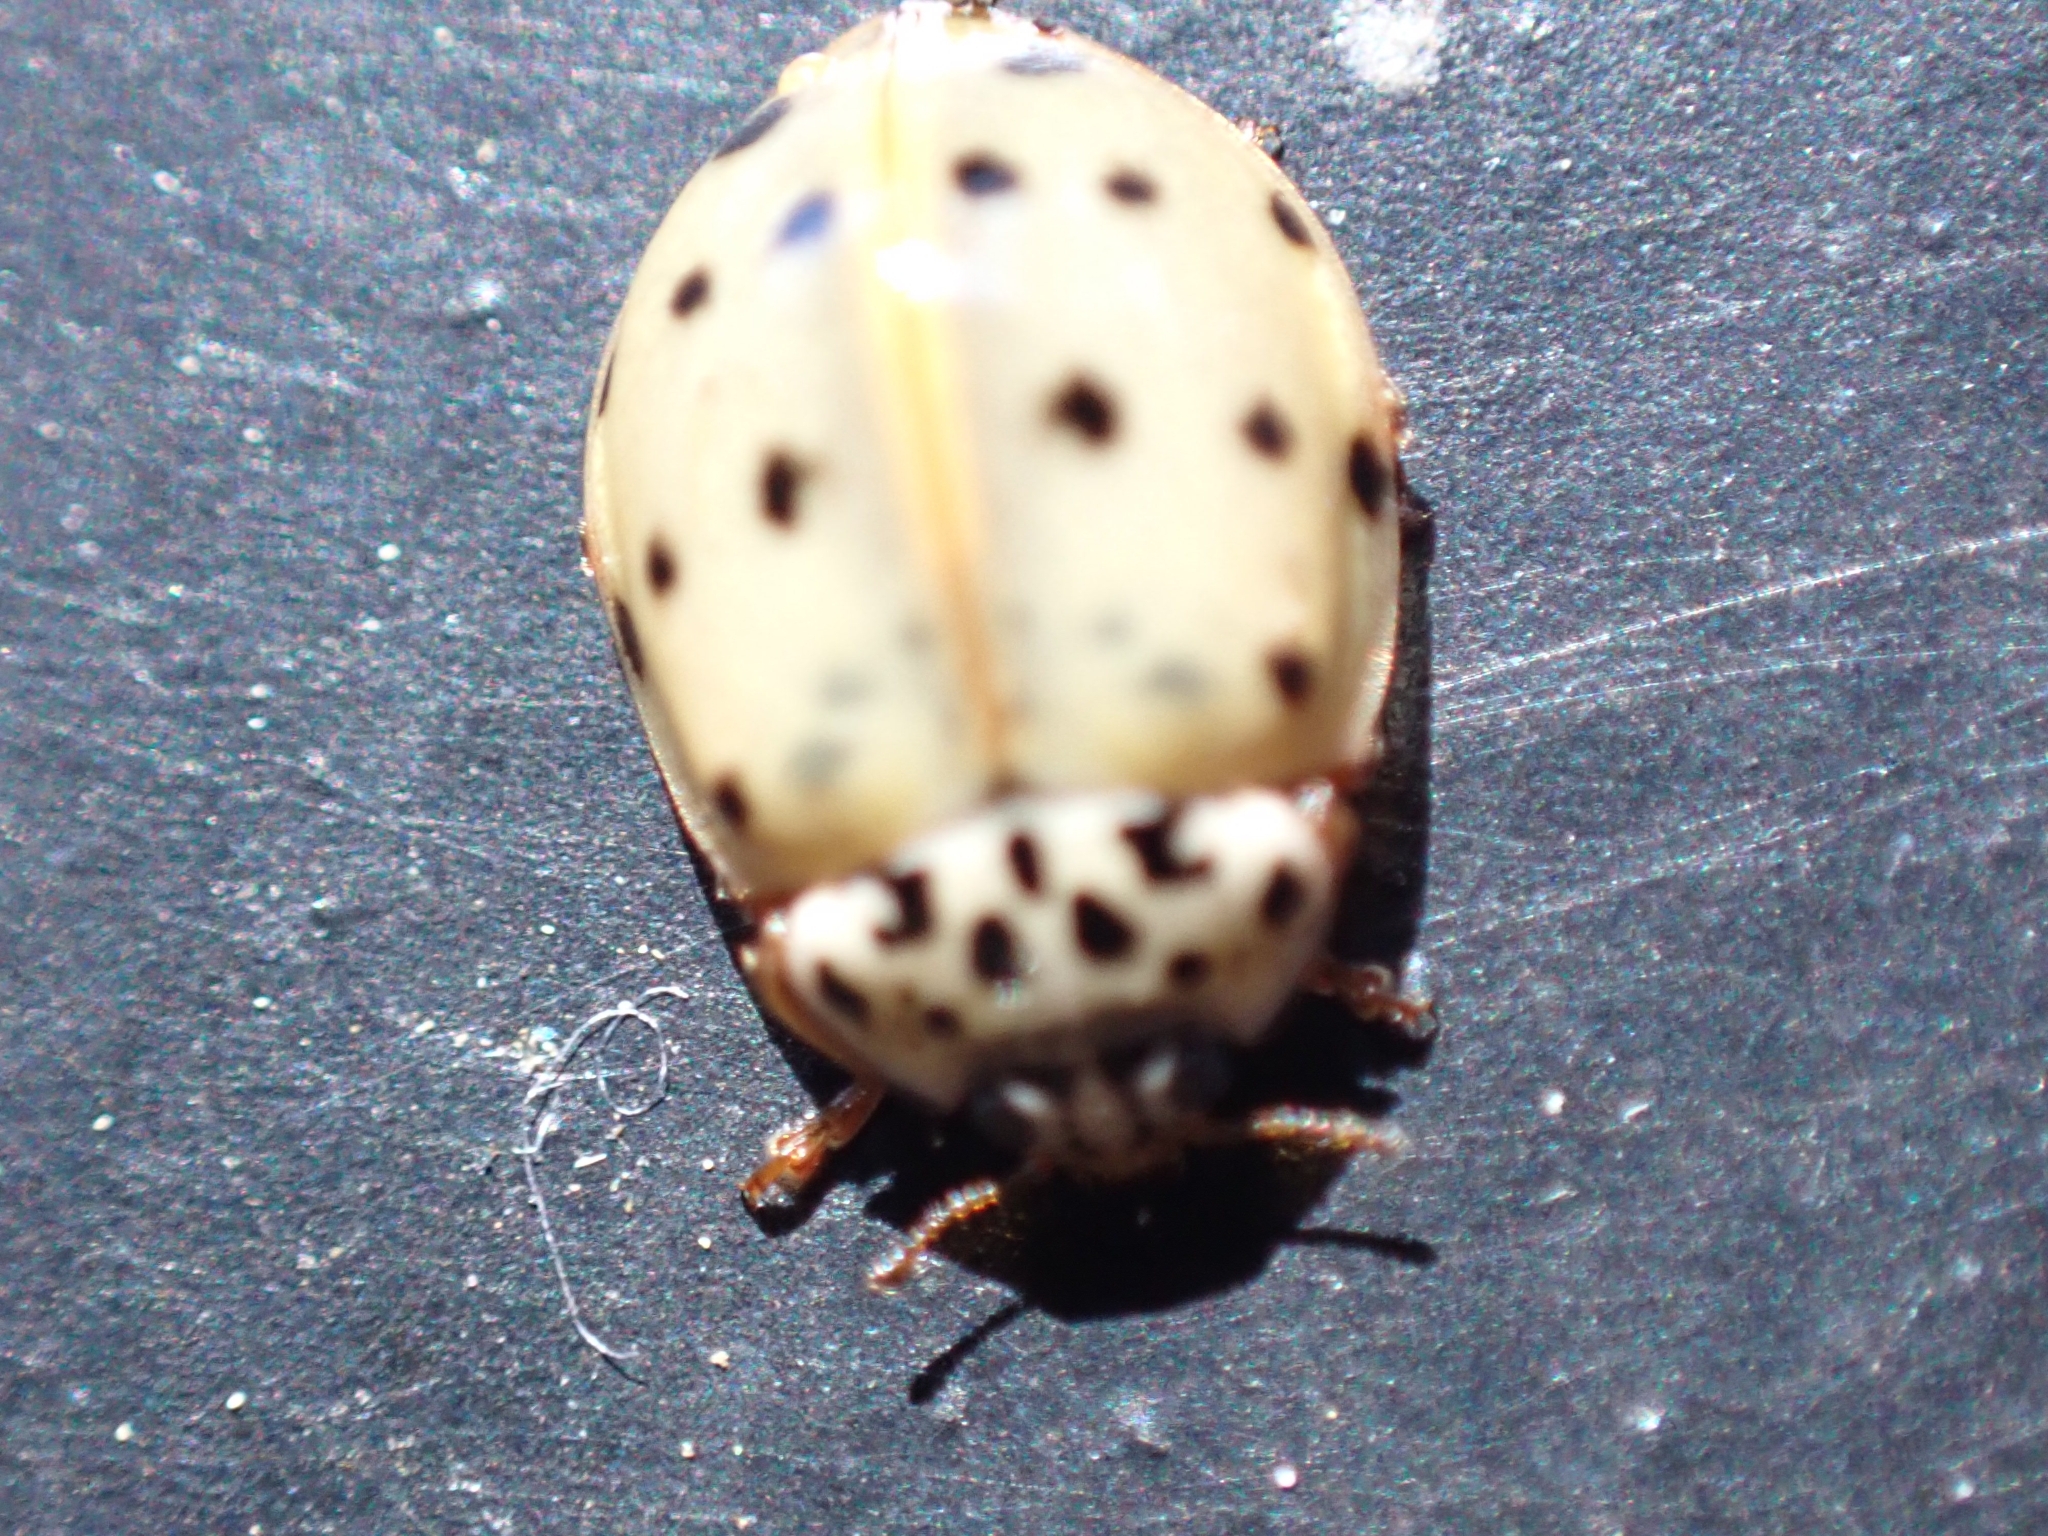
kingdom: Animalia
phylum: Arthropoda
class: Insecta
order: Coleoptera
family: Coccinellidae
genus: Harmonia
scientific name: Harmonia quadripunctata
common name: Cream-streaked ladybird
